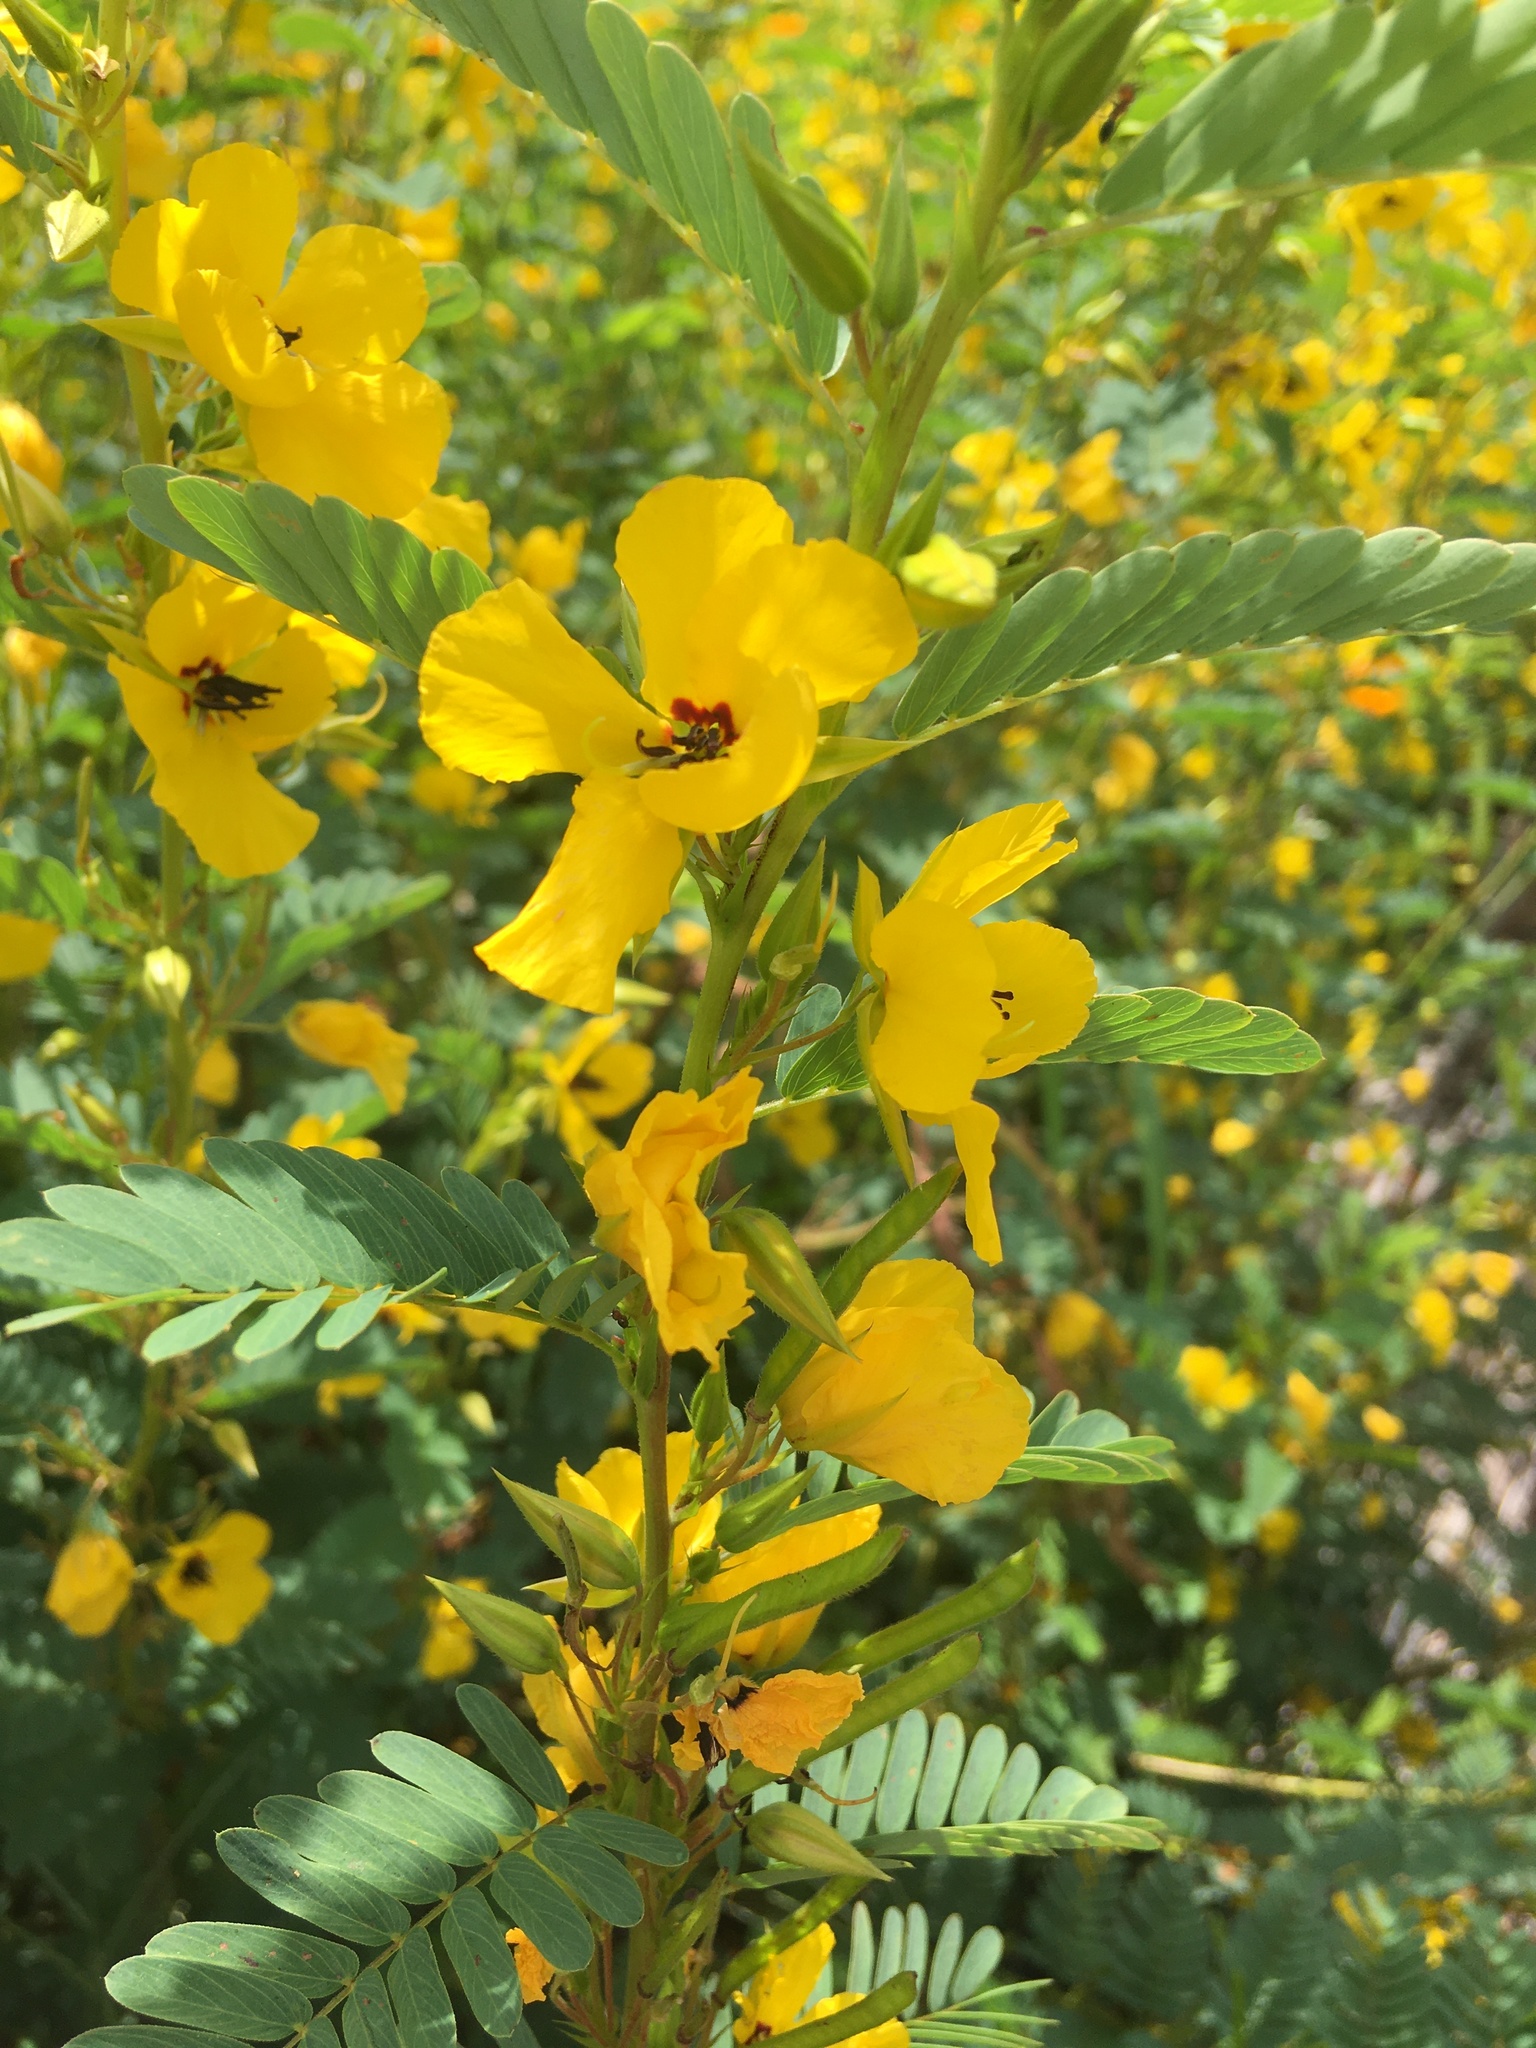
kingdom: Plantae
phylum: Tracheophyta
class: Magnoliopsida
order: Fabales
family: Fabaceae
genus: Chamaecrista
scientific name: Chamaecrista fasciculata
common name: Golden cassia
